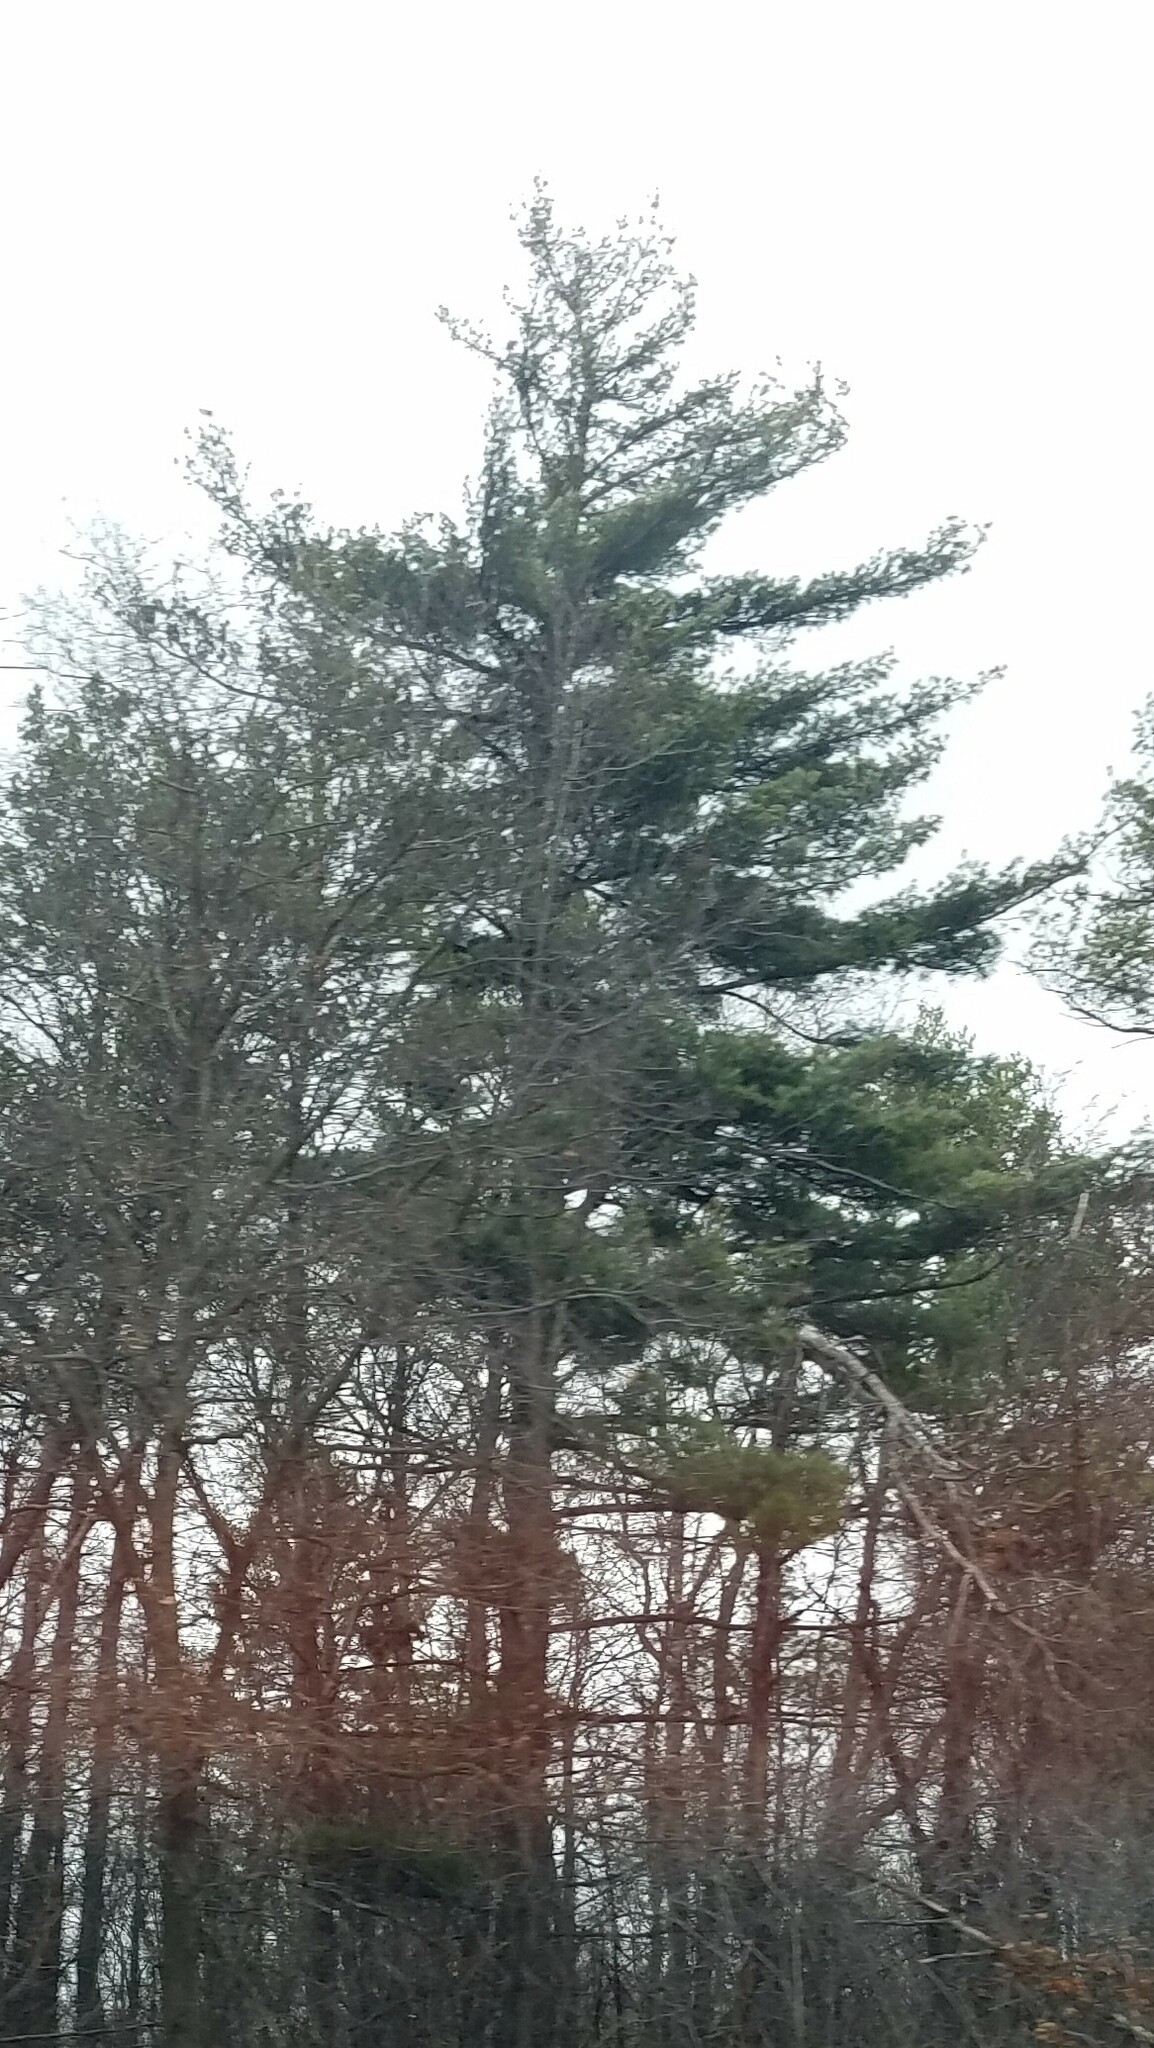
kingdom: Plantae
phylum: Tracheophyta
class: Pinopsida
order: Pinales
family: Pinaceae
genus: Pinus
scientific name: Pinus strobus
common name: Weymouth pine
